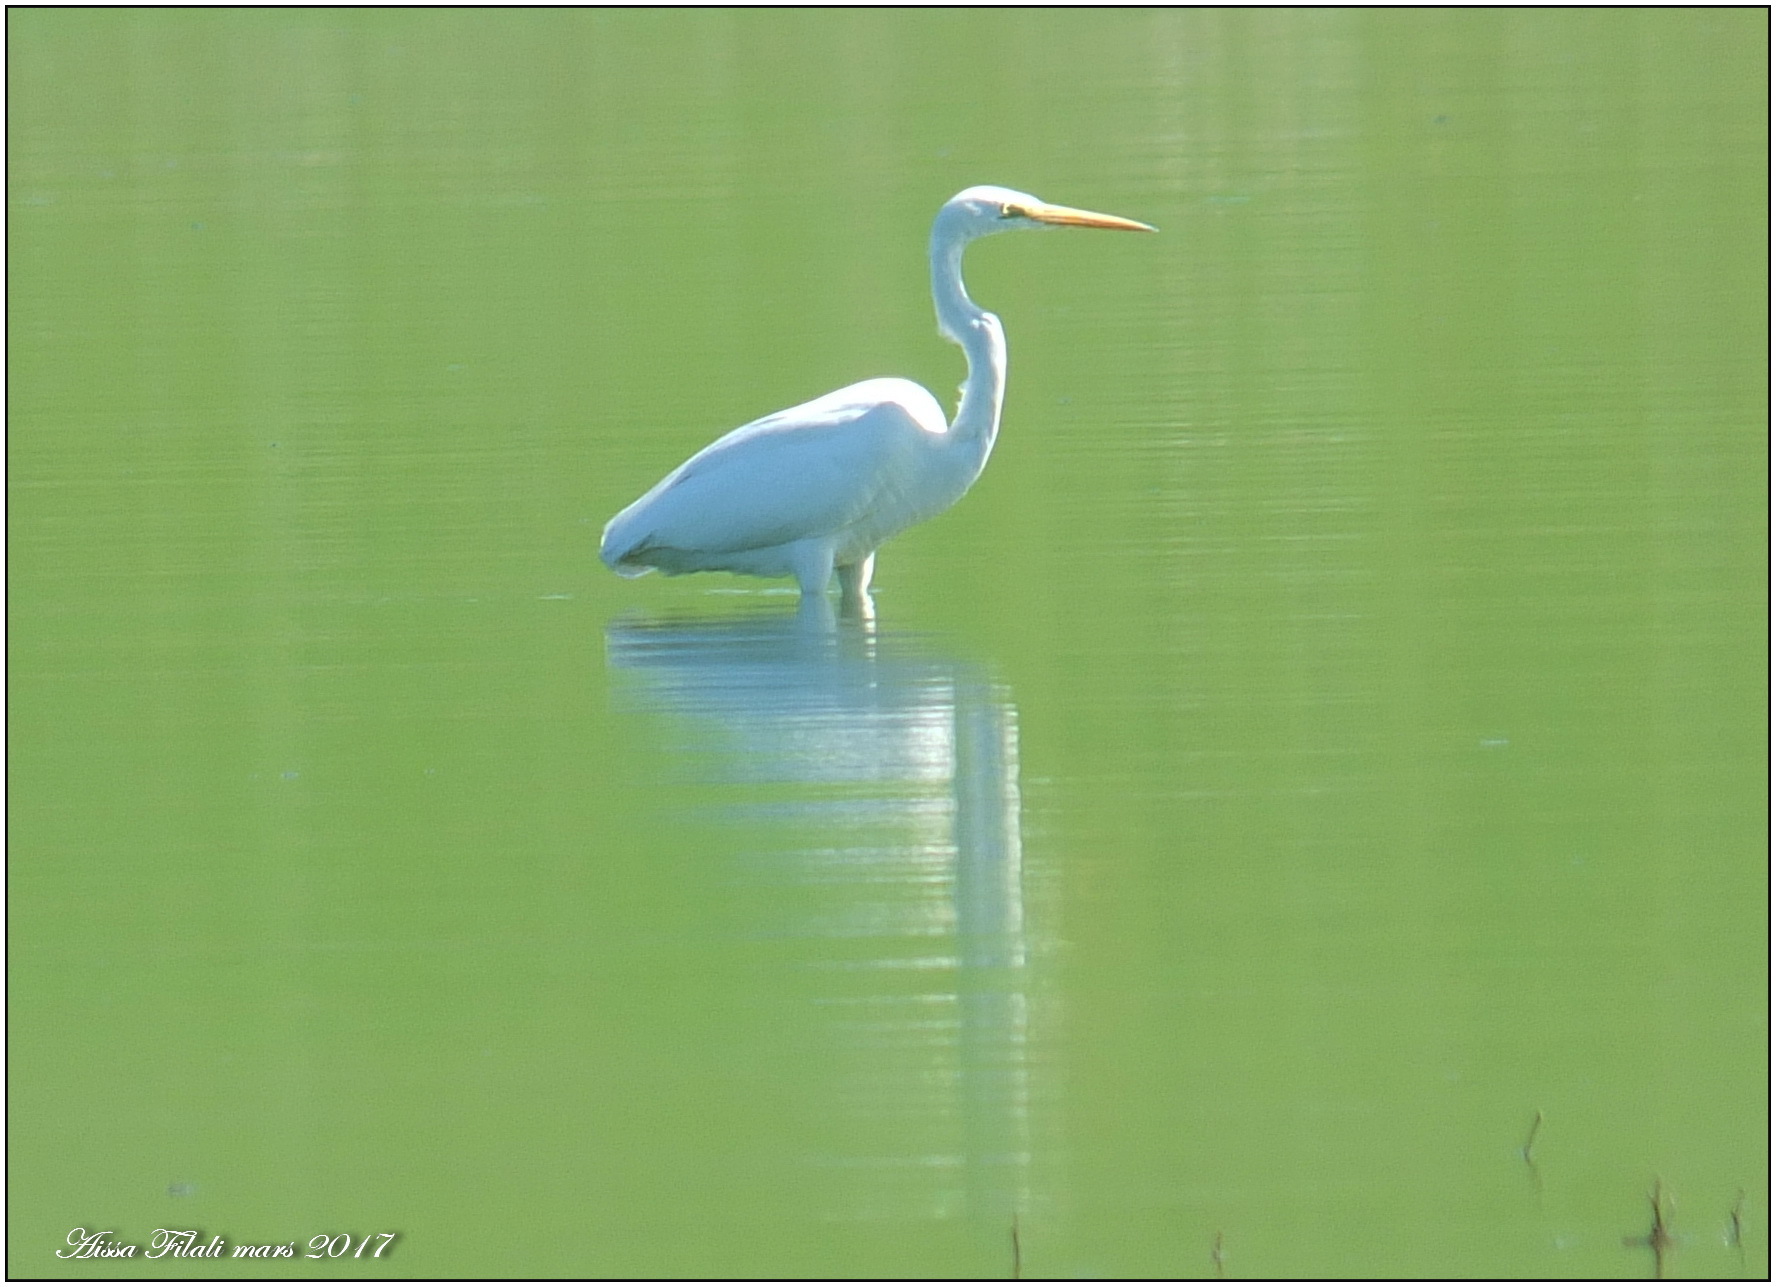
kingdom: Animalia
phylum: Chordata
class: Aves
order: Pelecaniformes
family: Ardeidae
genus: Ardea
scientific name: Ardea alba
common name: Great egret
